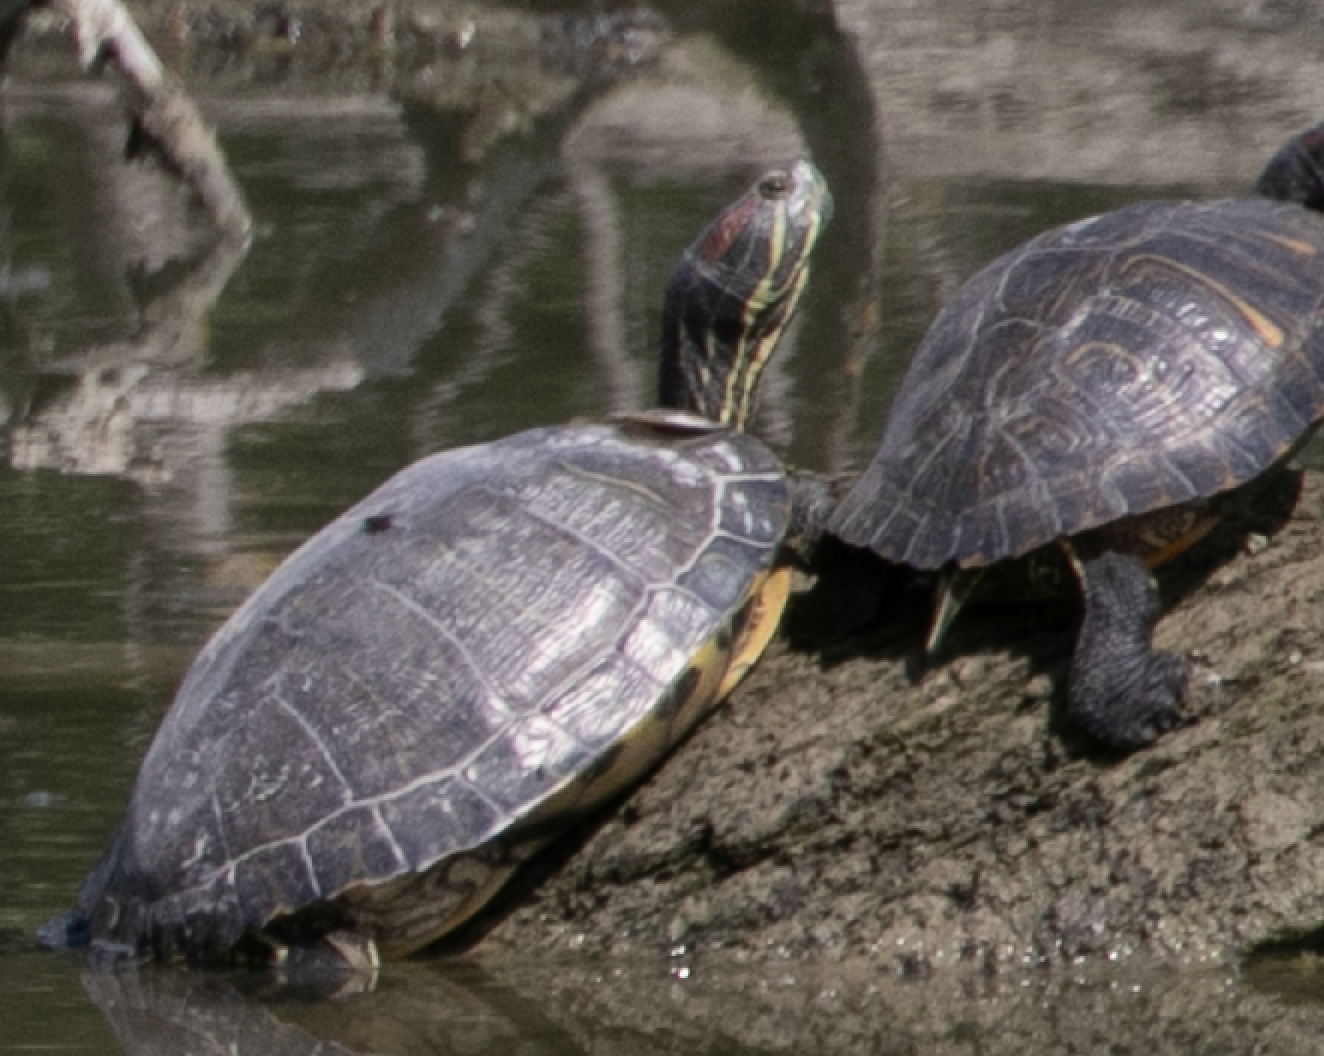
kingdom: Animalia
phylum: Chordata
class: Testudines
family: Emydidae
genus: Trachemys
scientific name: Trachemys scripta
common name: Slider
